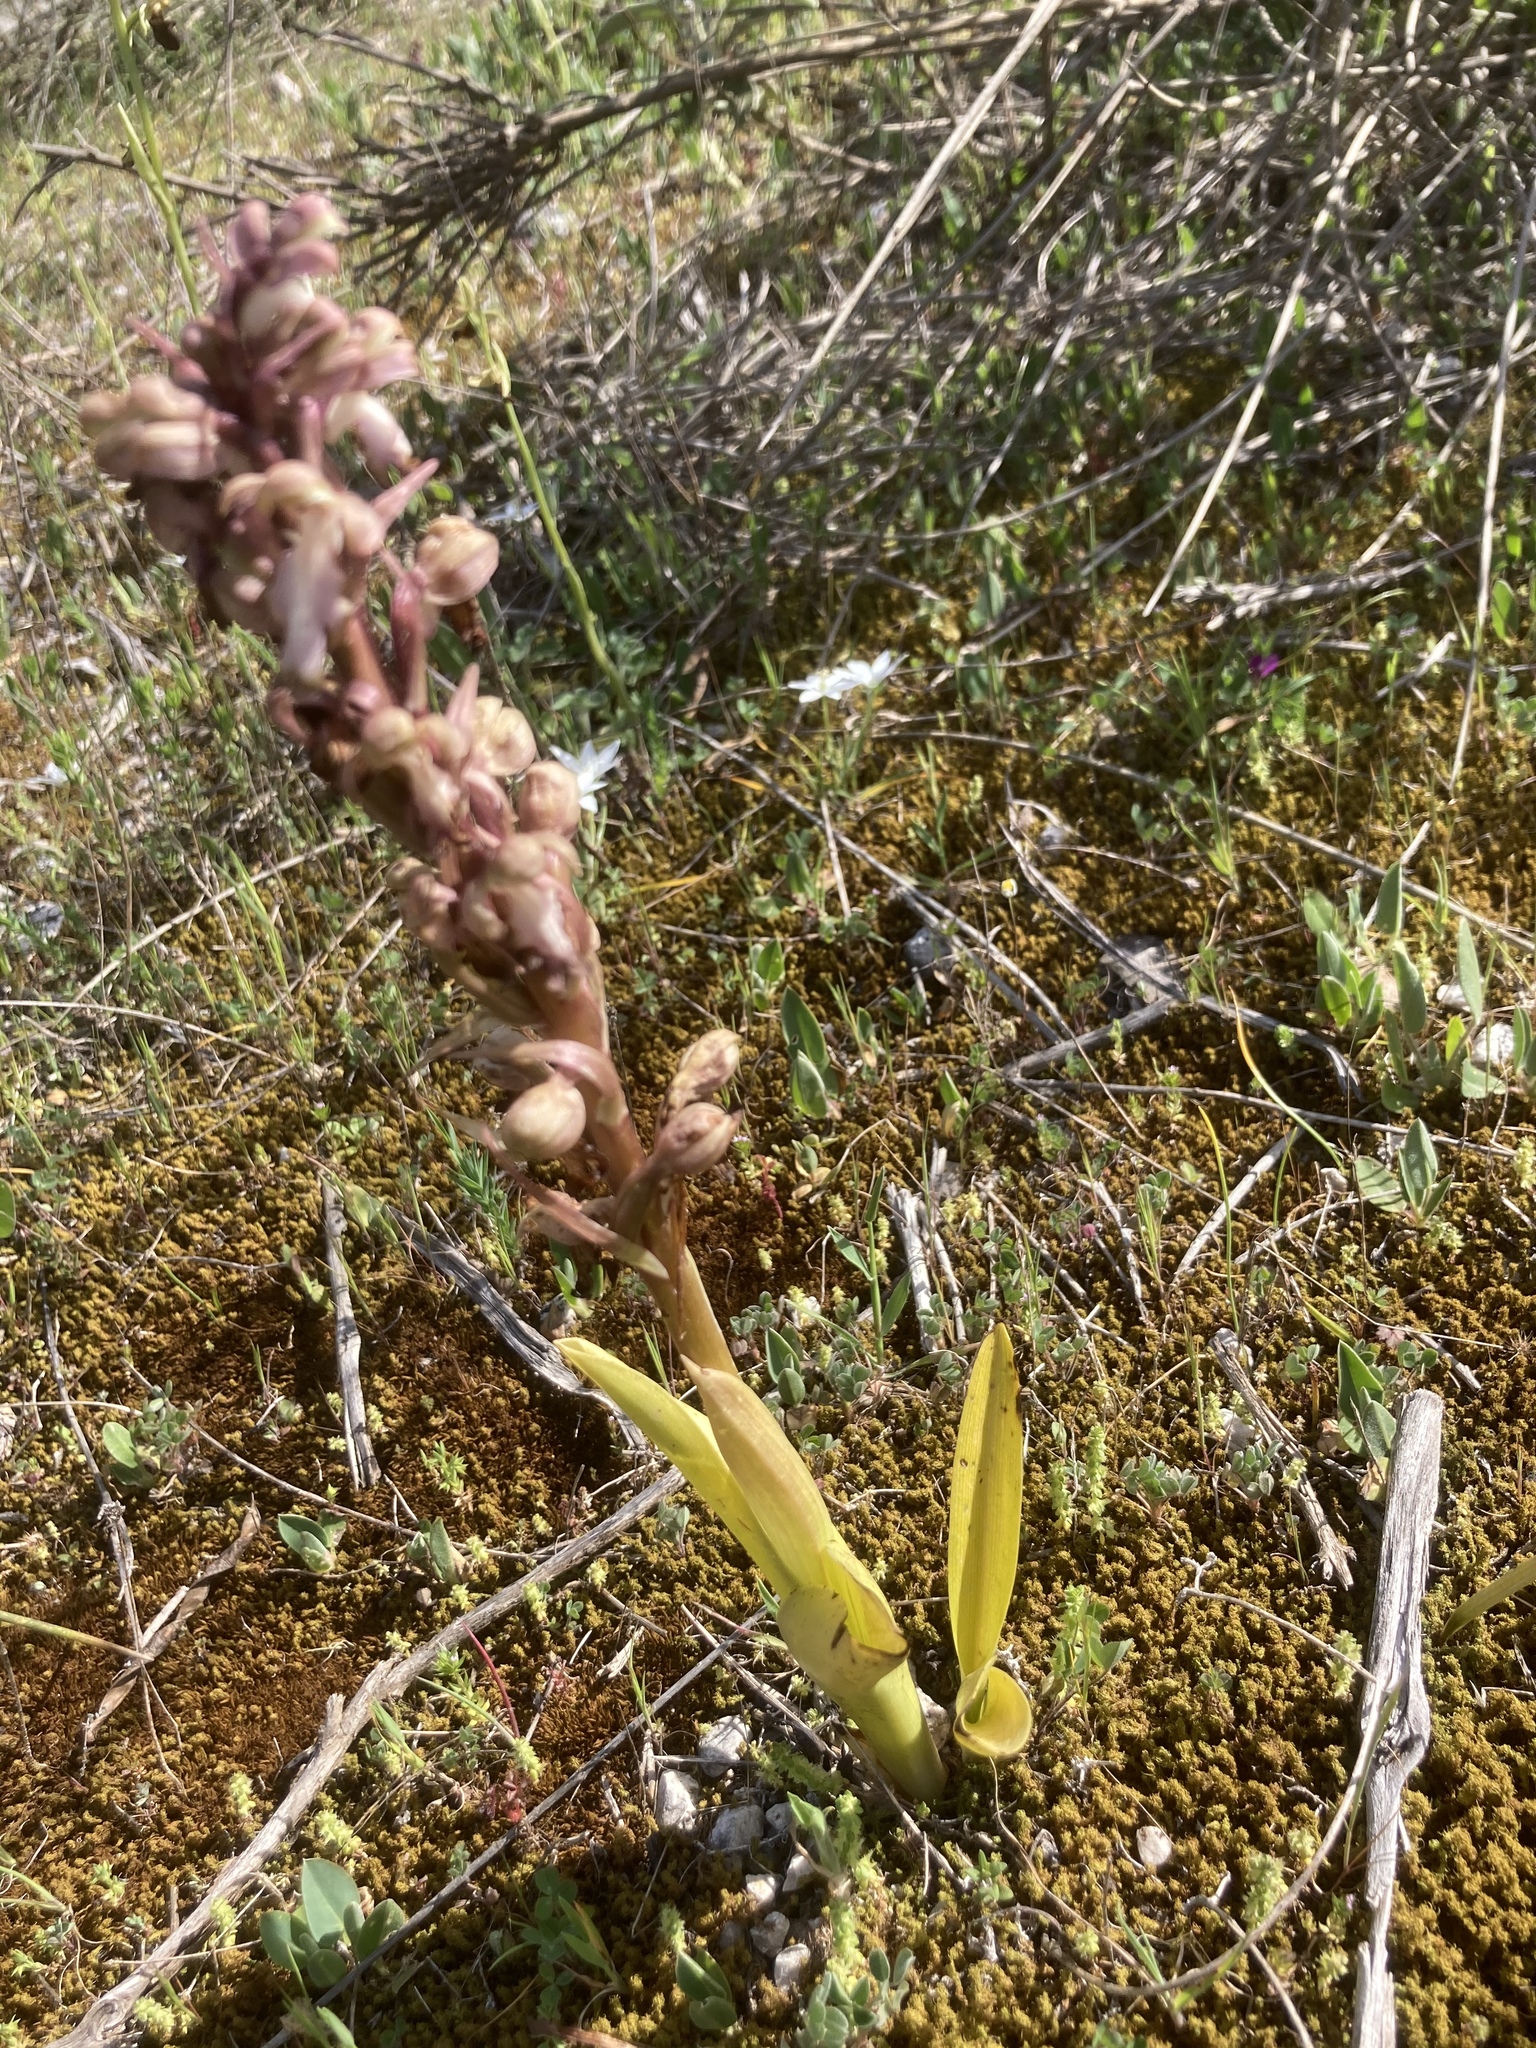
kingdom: Plantae
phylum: Tracheophyta
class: Liliopsida
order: Asparagales
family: Orchidaceae
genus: Himantoglossum
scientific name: Himantoglossum robertianum
